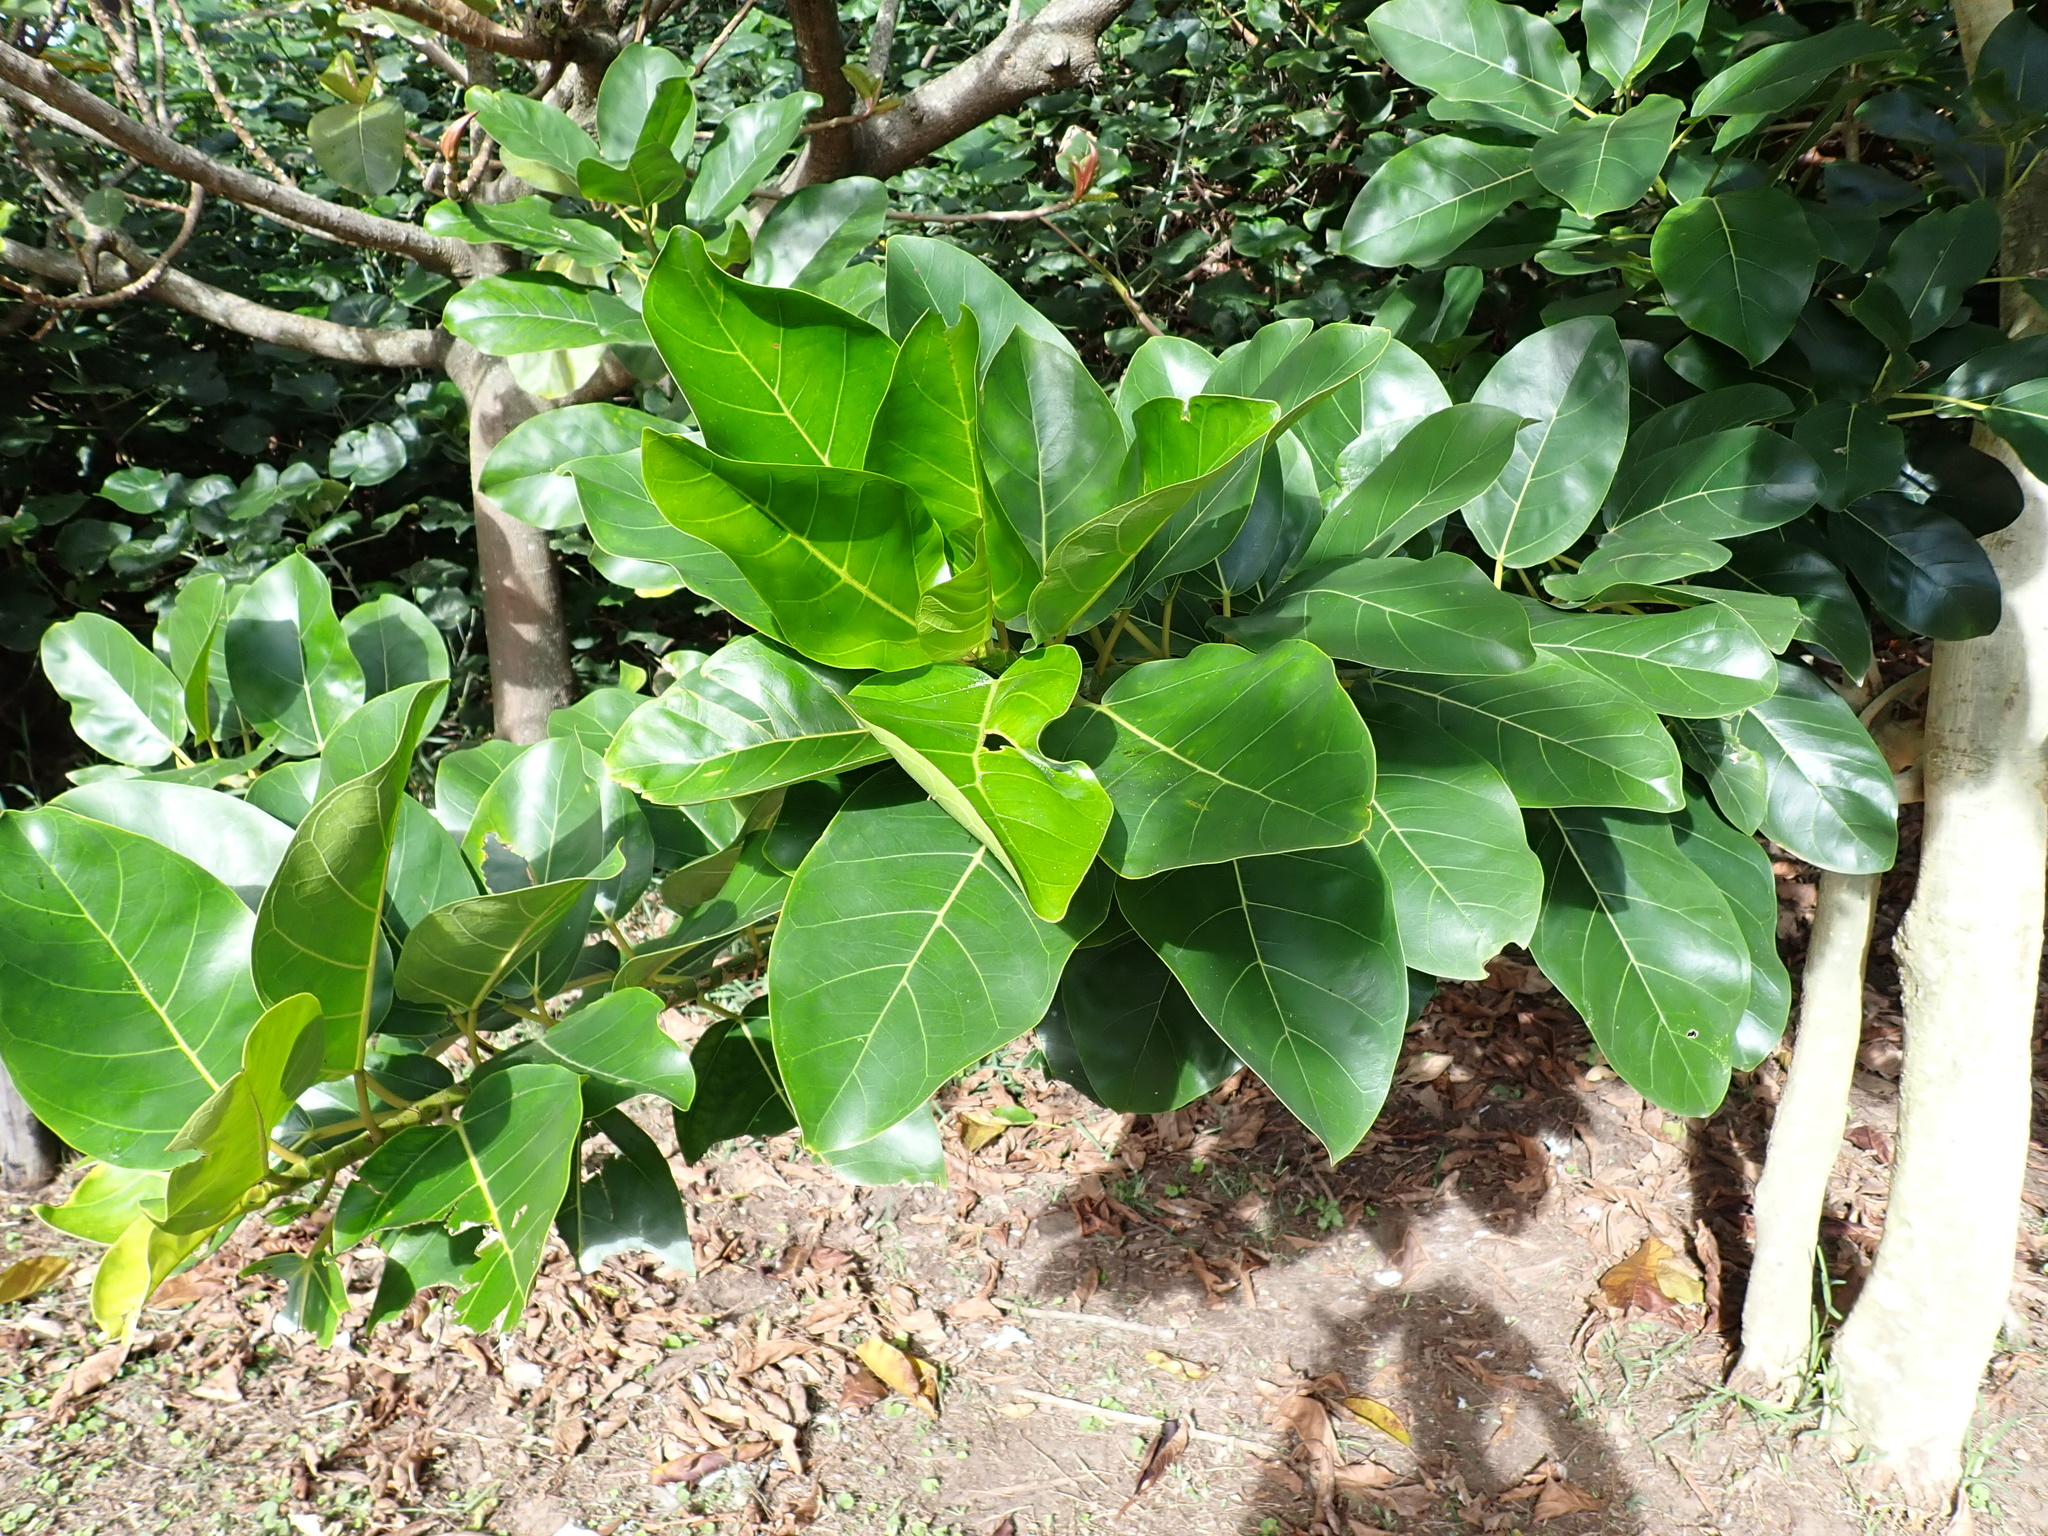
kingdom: Plantae
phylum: Tracheophyta
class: Magnoliopsida
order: Rosales
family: Moraceae
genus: Ficus
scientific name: Ficus bubu
